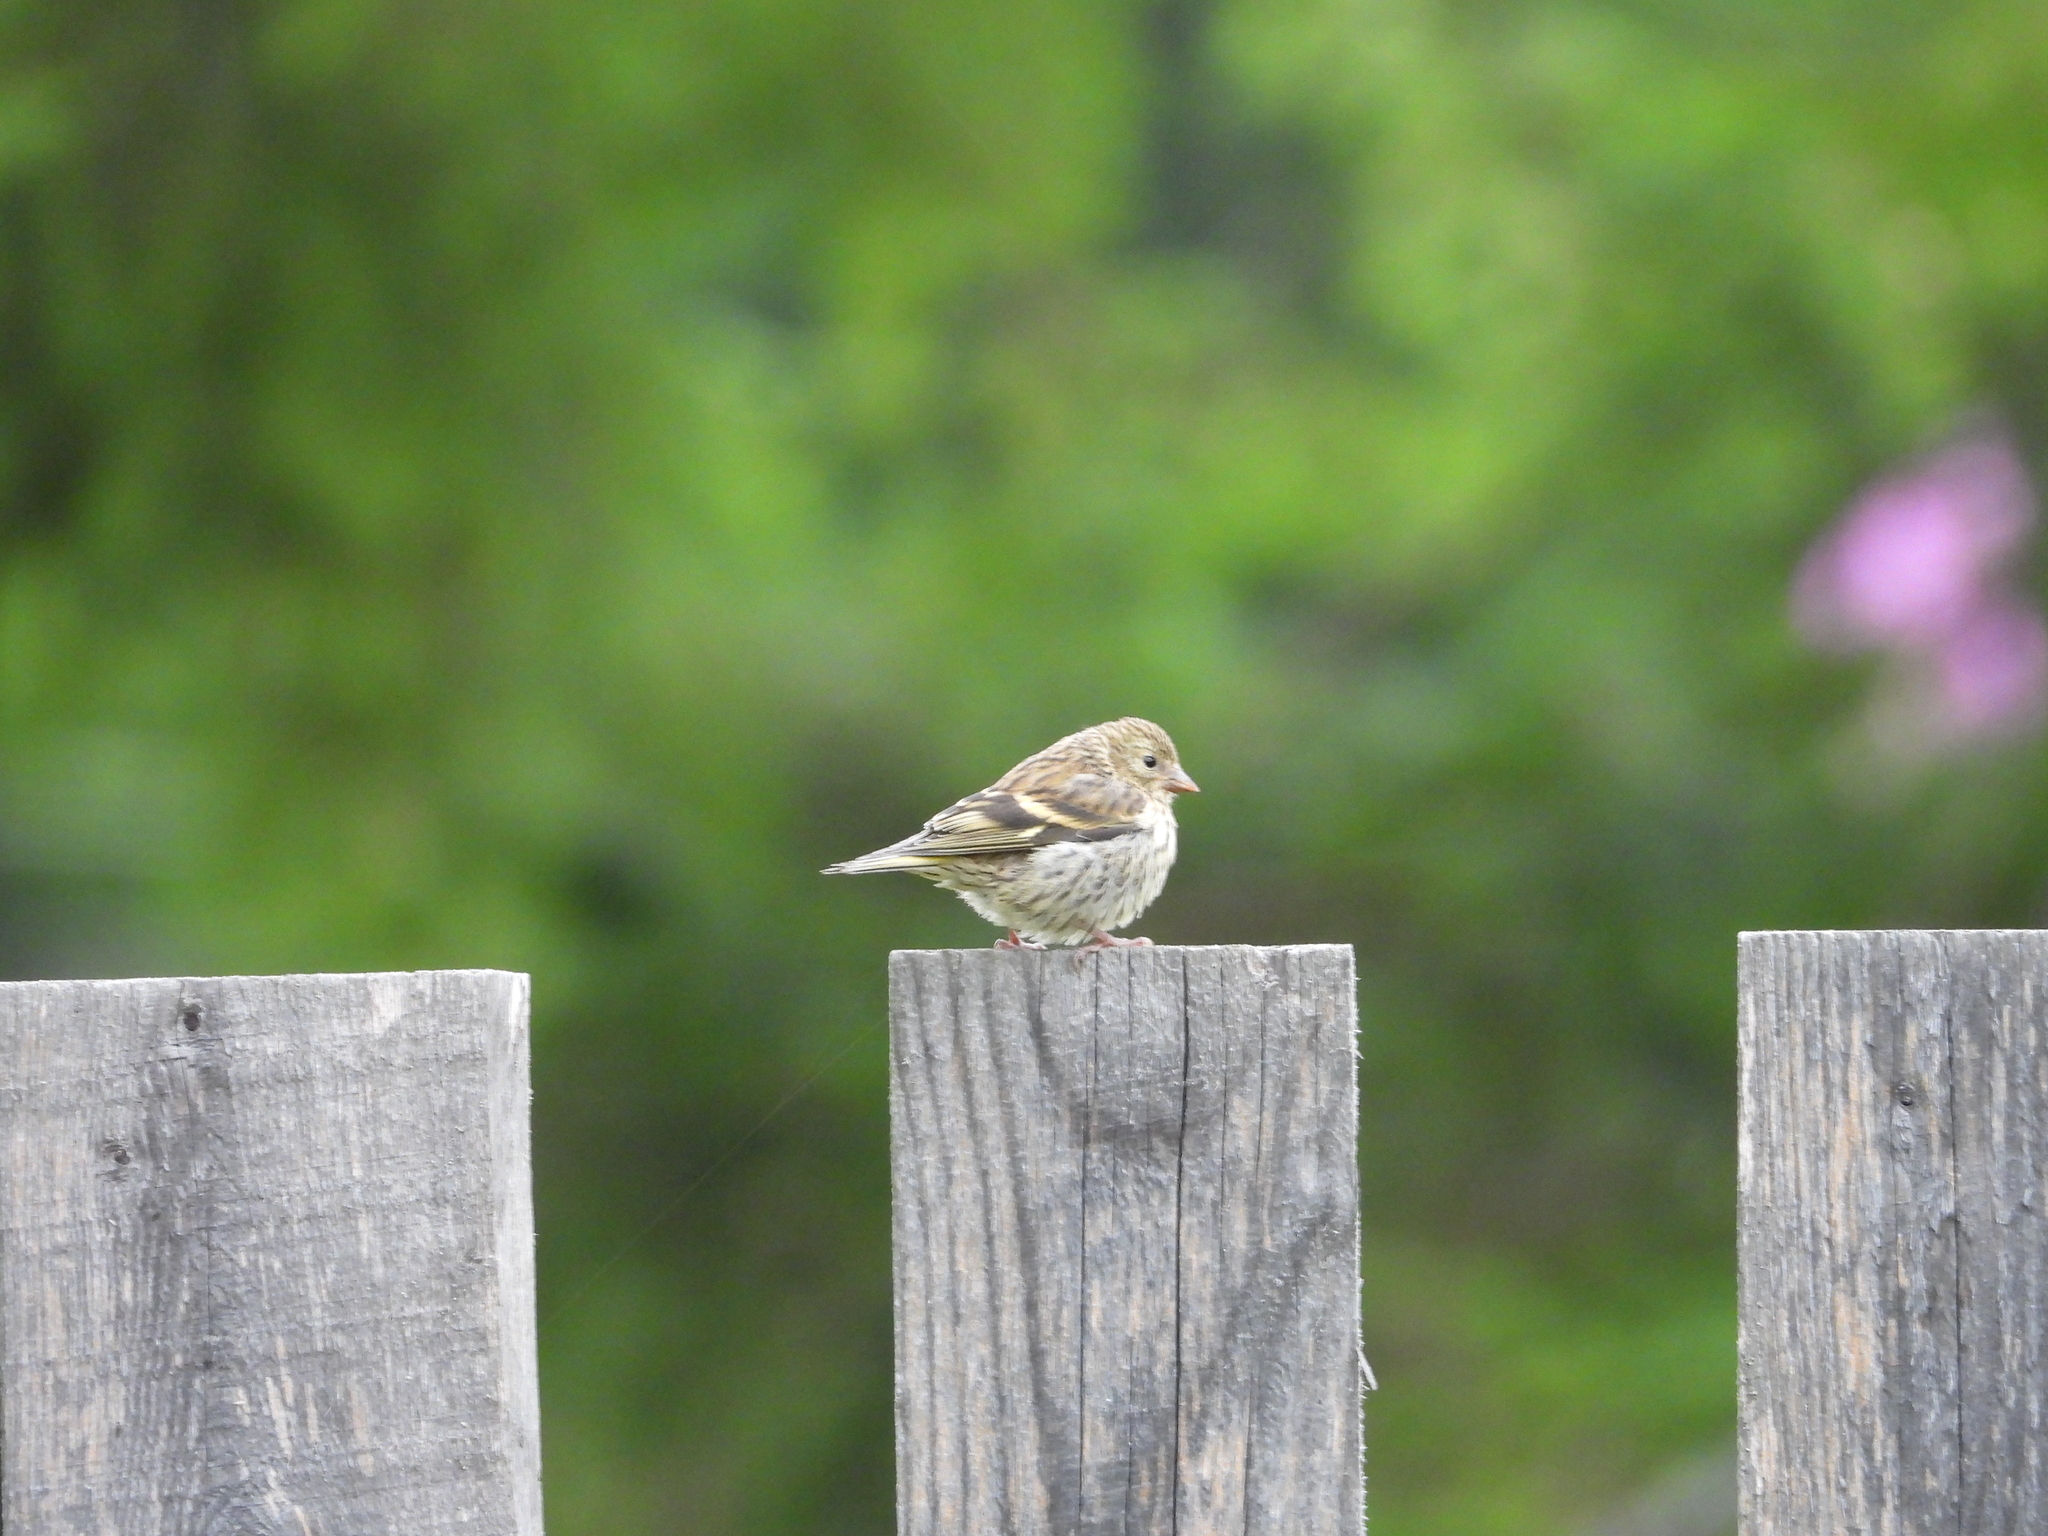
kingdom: Animalia
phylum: Chordata
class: Aves
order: Passeriformes
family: Fringillidae
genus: Spinus
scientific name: Spinus spinus
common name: Eurasian siskin
